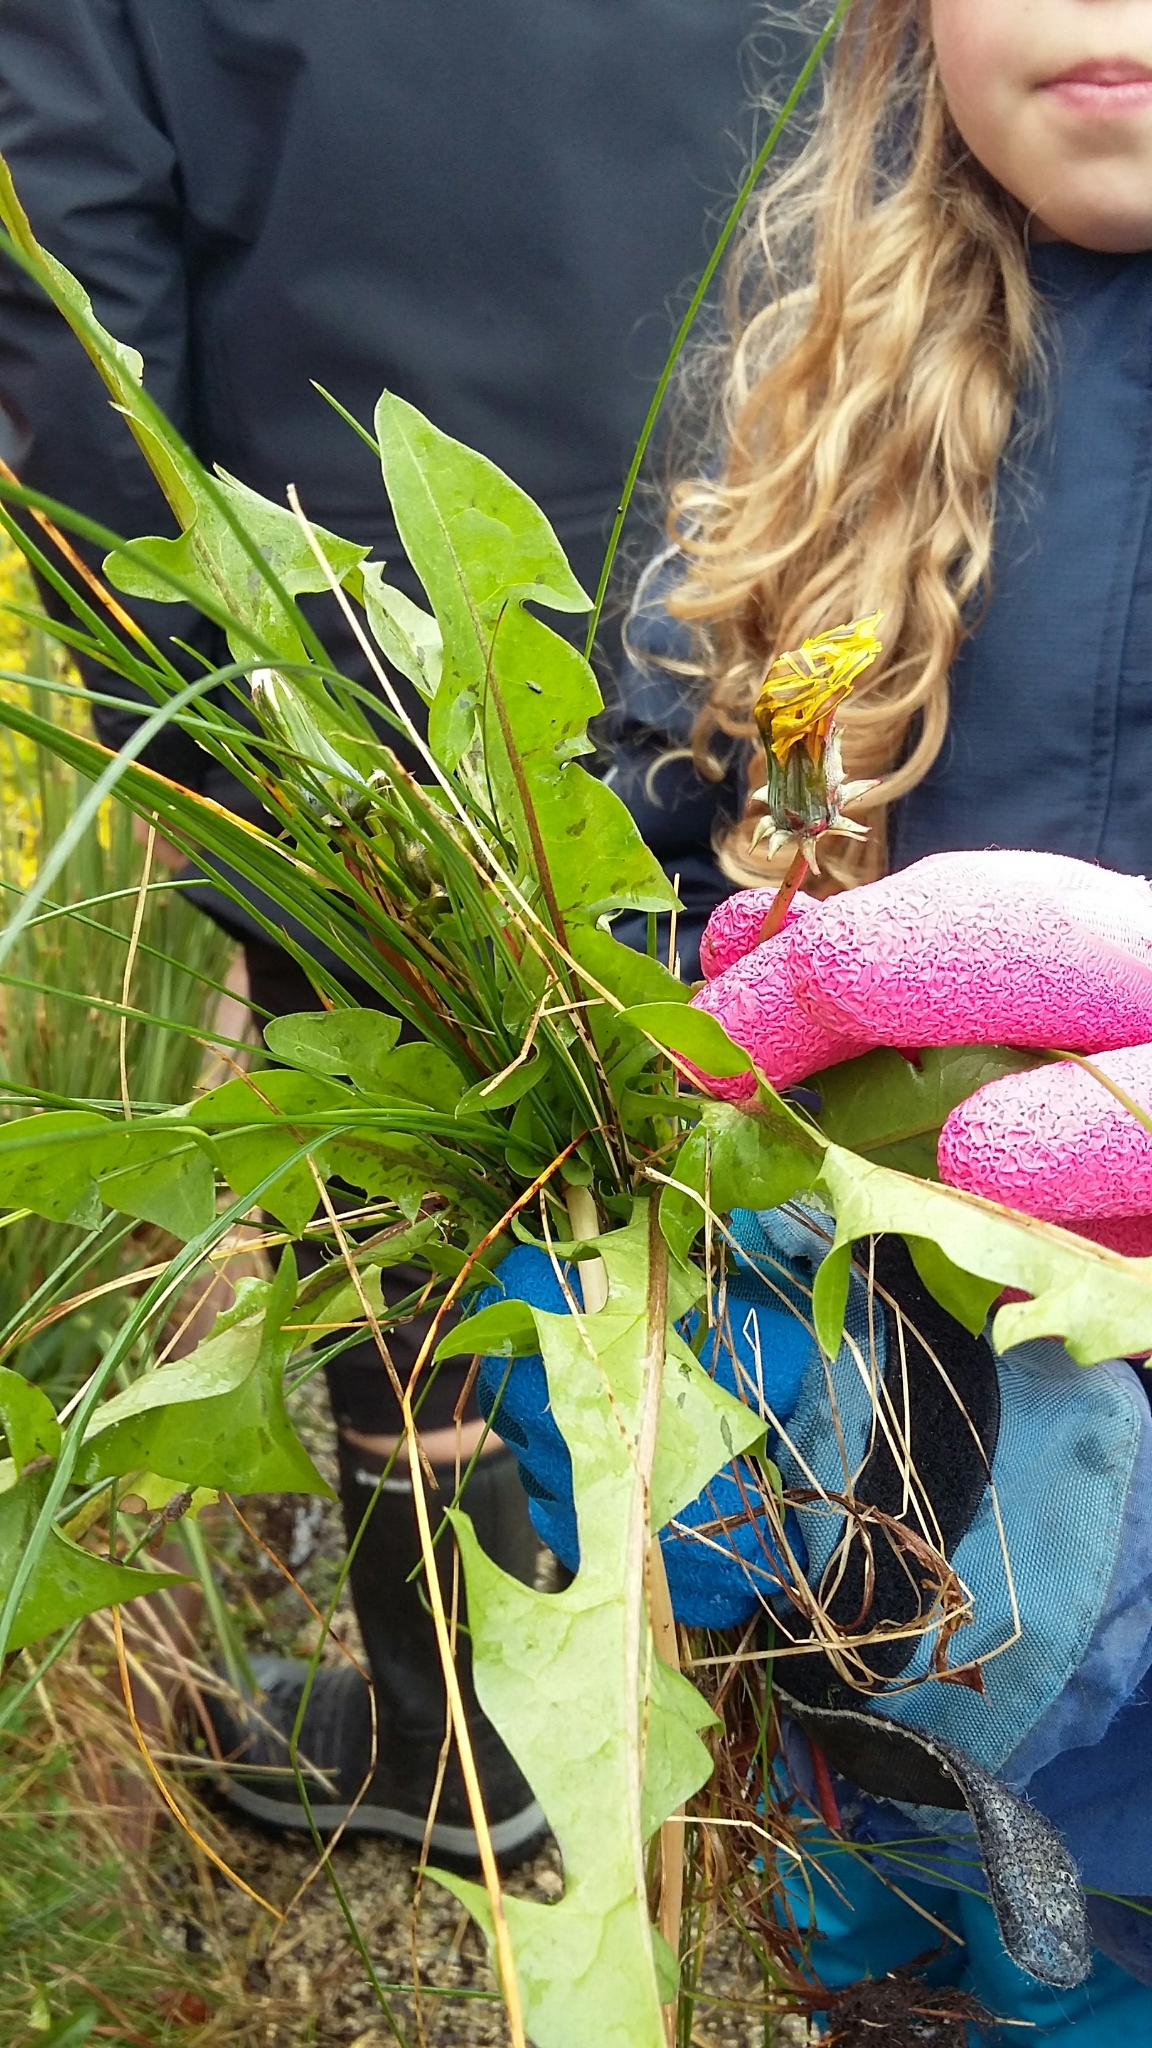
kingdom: Plantae
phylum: Tracheophyta
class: Magnoliopsida
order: Asterales
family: Asteraceae
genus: Taraxacum
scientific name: Taraxacum officinale
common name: Common dandelion
